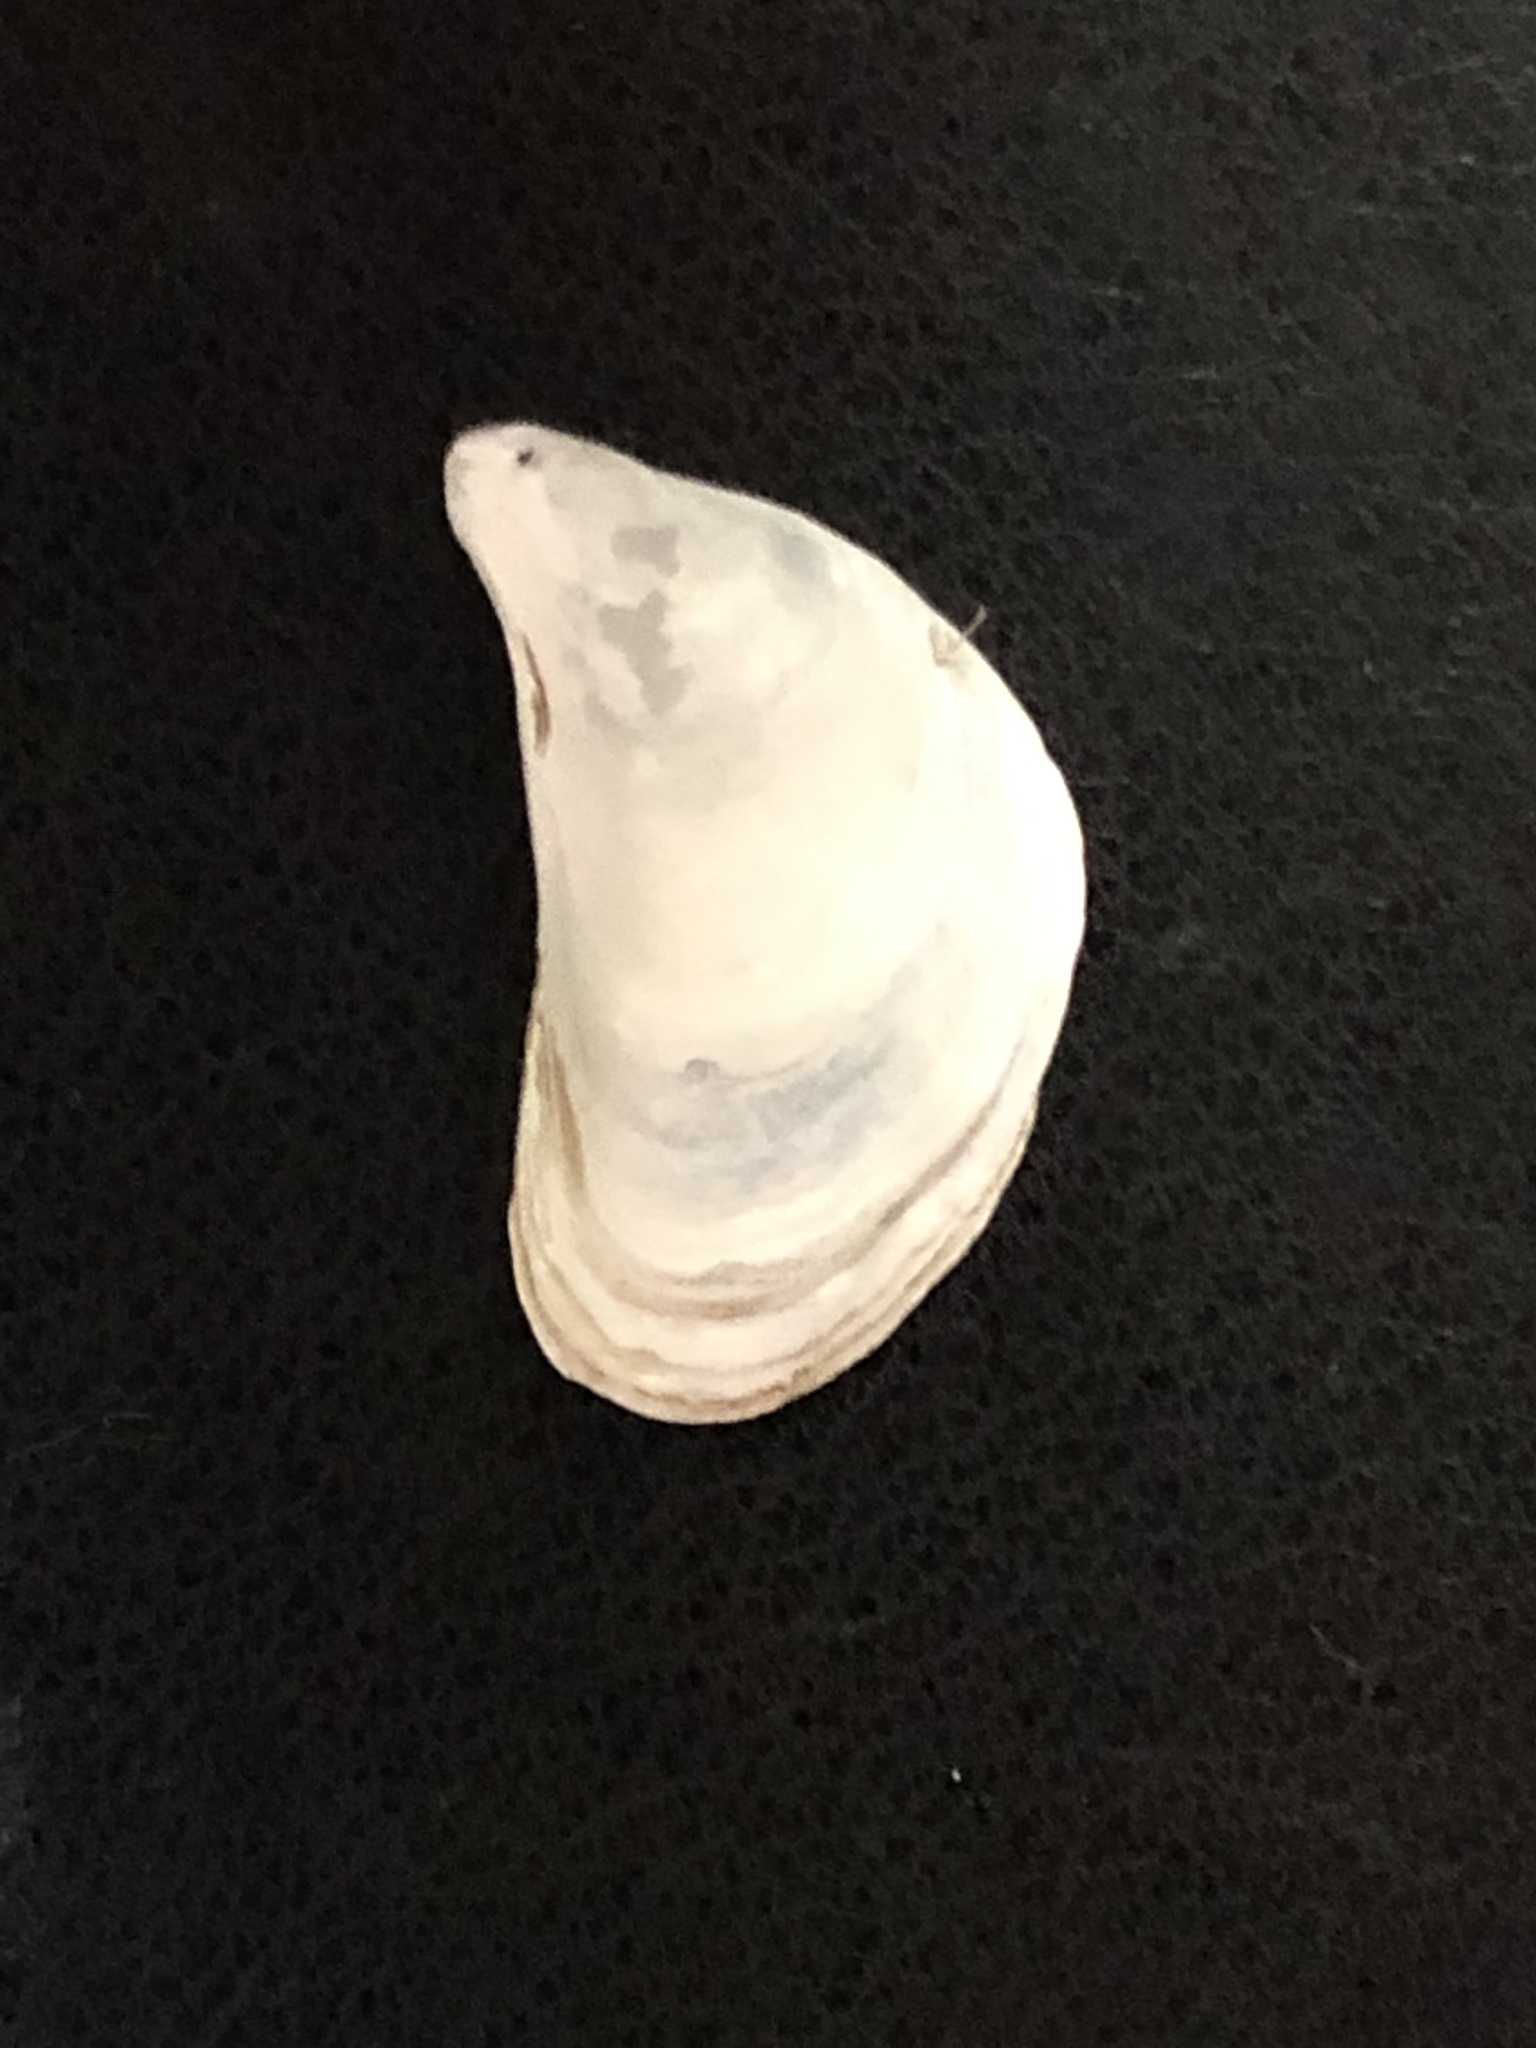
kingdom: Animalia
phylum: Mollusca
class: Bivalvia
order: Myida
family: Dreissenidae
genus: Dreissena
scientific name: Dreissena bugensis
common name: Quagga mussel
